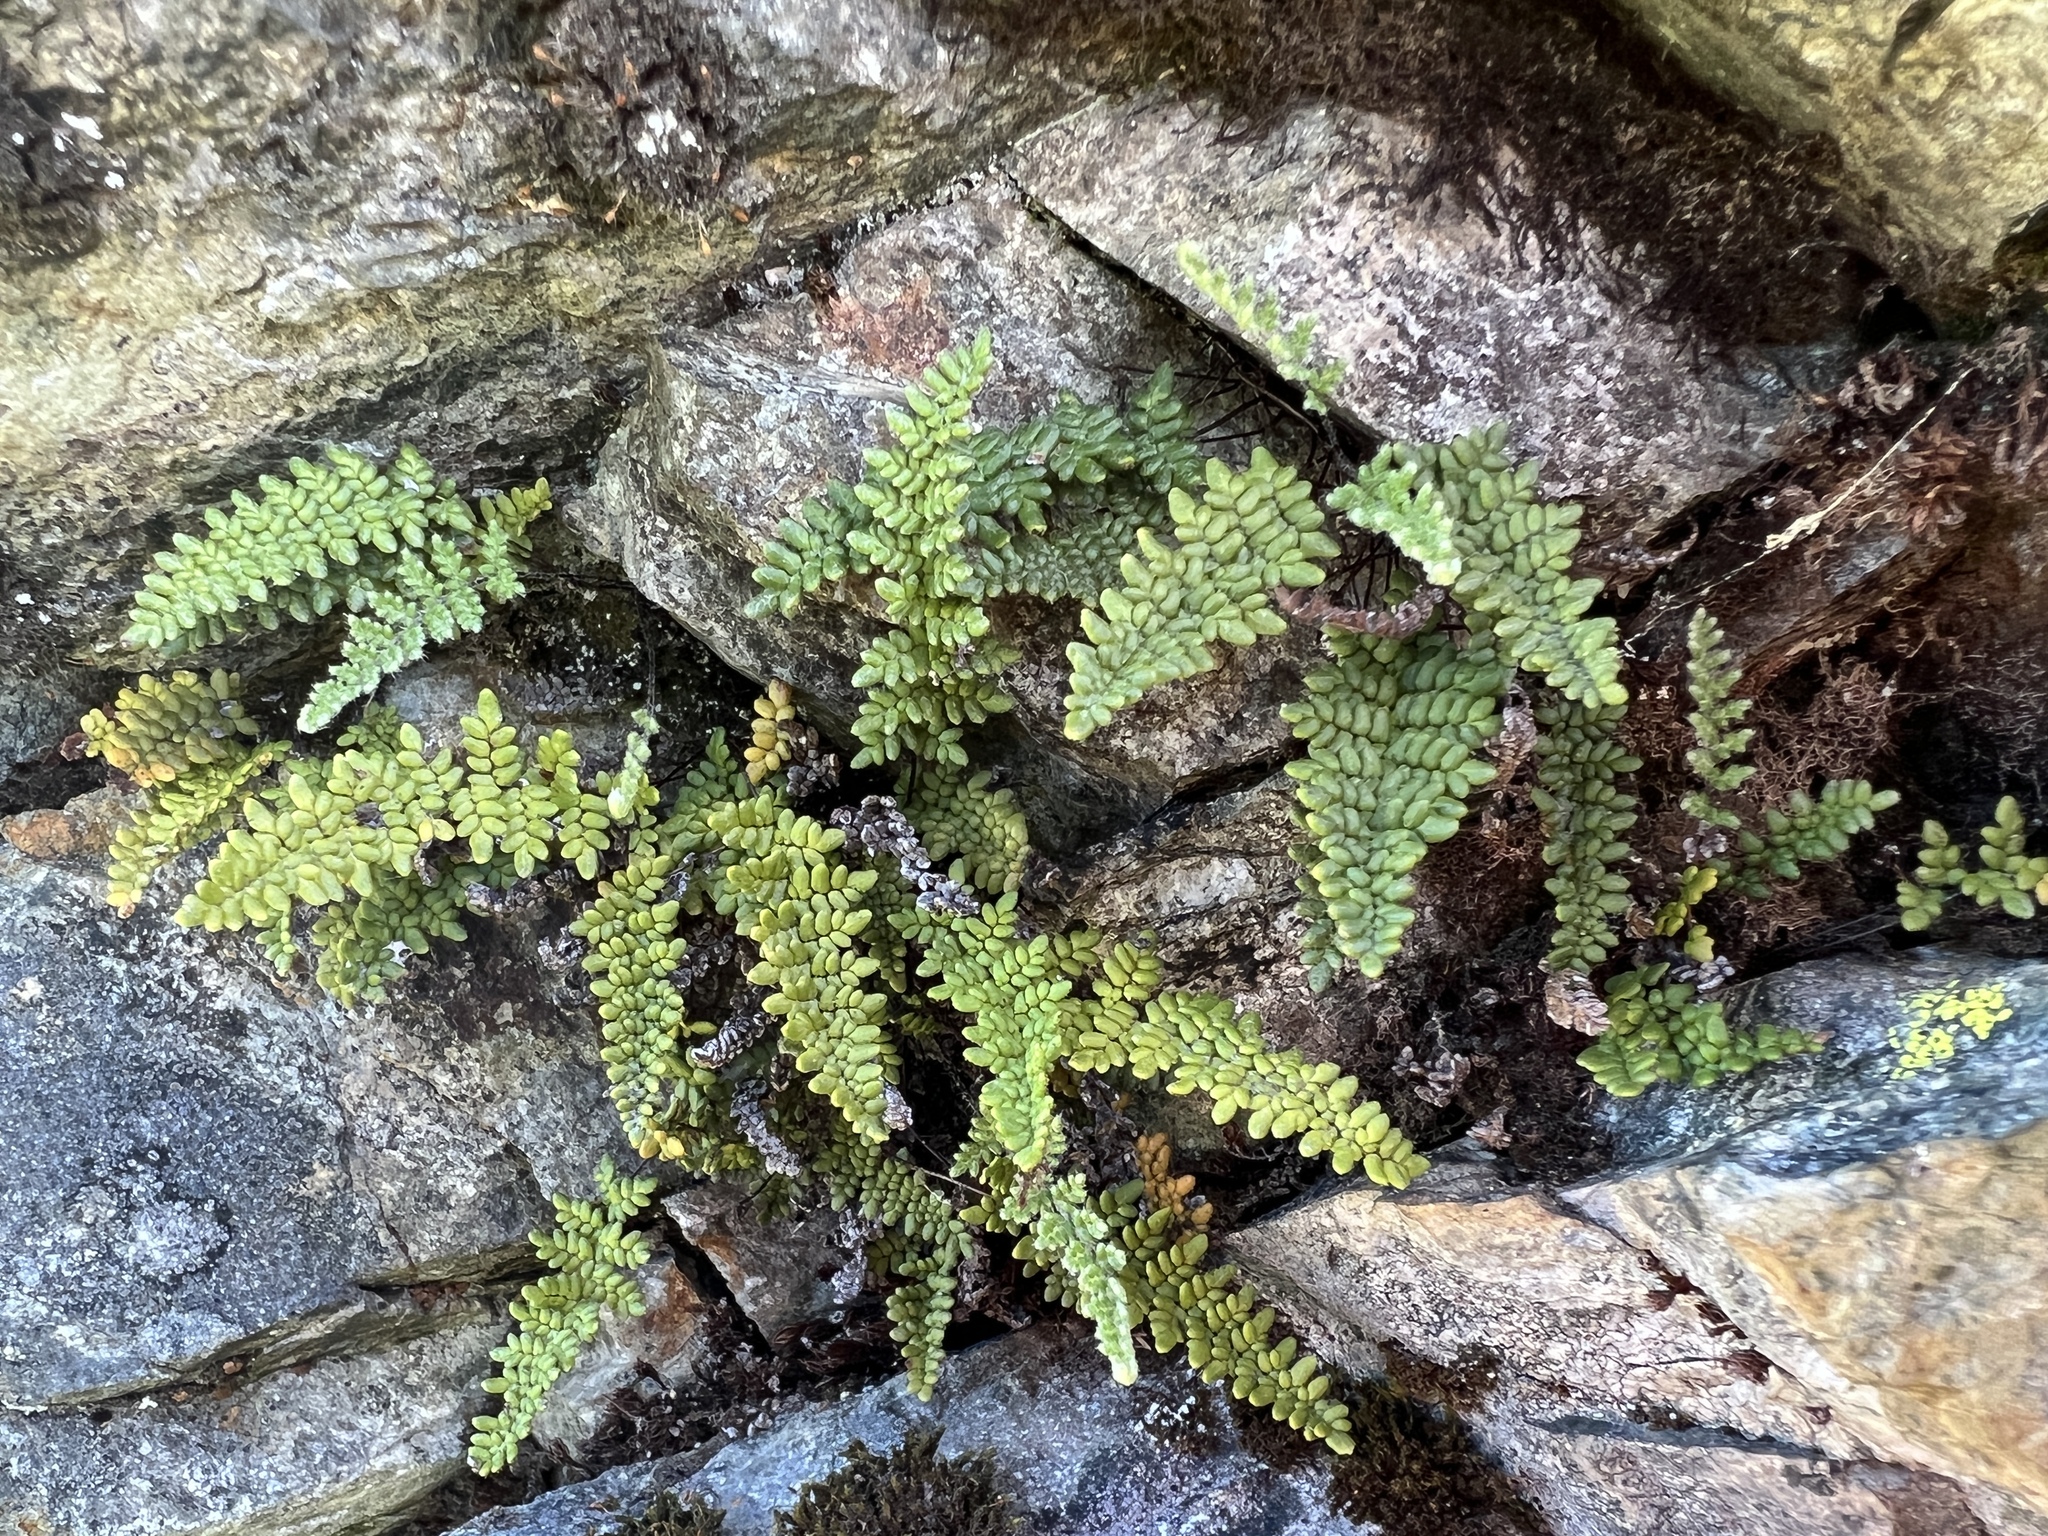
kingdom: Plantae
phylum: Tracheophyta
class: Polypodiopsida
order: Polypodiales
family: Pteridaceae
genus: Myriopteris
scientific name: Myriopteris gracillima
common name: Lace fern
